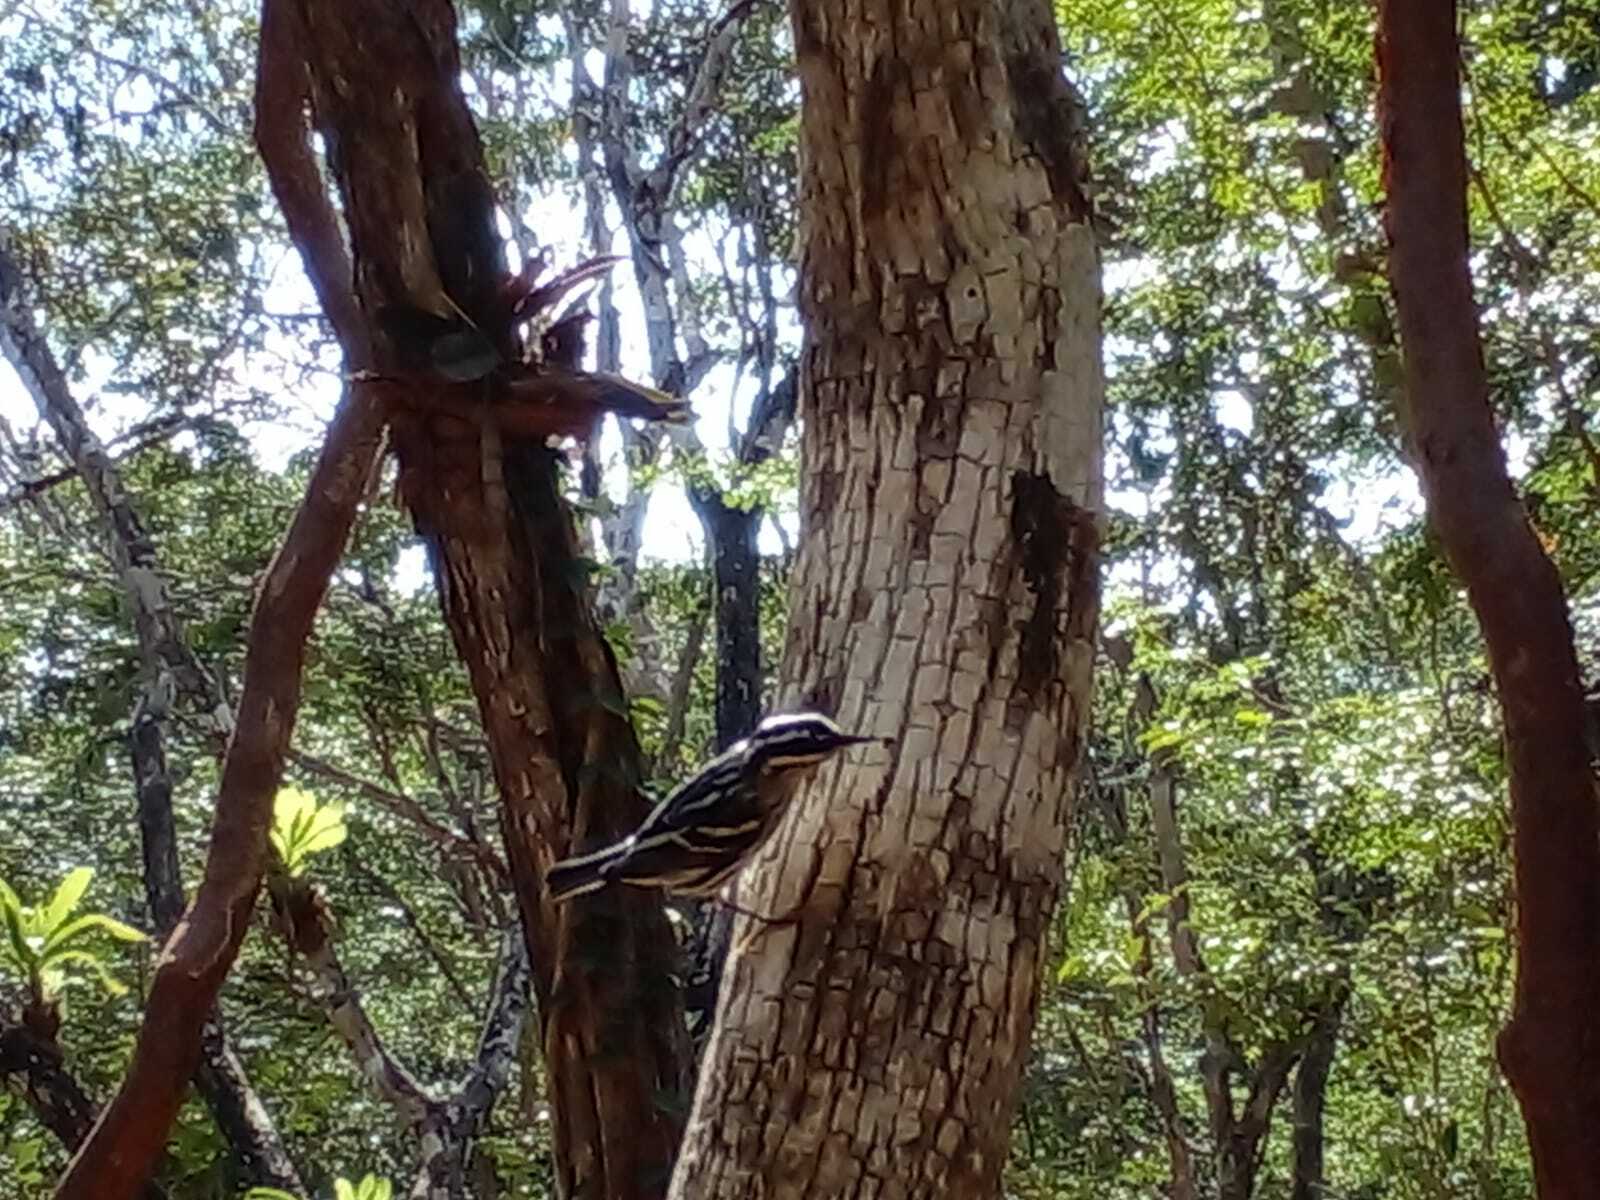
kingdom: Animalia
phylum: Chordata
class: Aves
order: Passeriformes
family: Parulidae
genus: Mniotilta
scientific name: Mniotilta varia
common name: Black-and-white warbler
